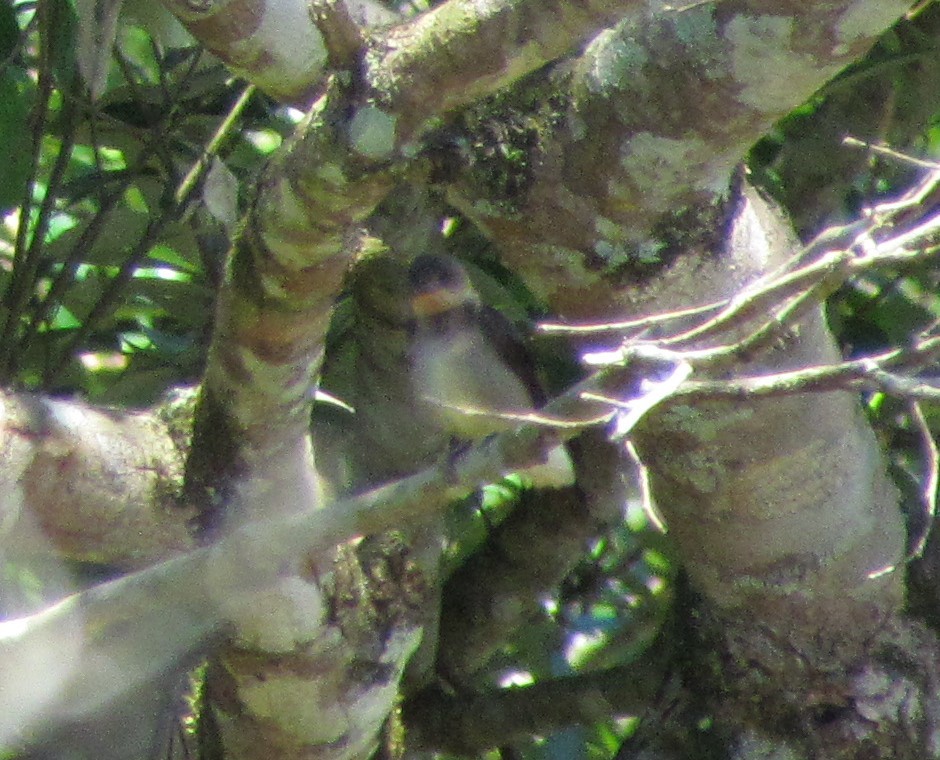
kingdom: Animalia
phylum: Chordata
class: Aves
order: Passeriformes
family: Hirundinidae
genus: Stelgidopteryx
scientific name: Stelgidopteryx ruficollis
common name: Southern rough-winged swallow
